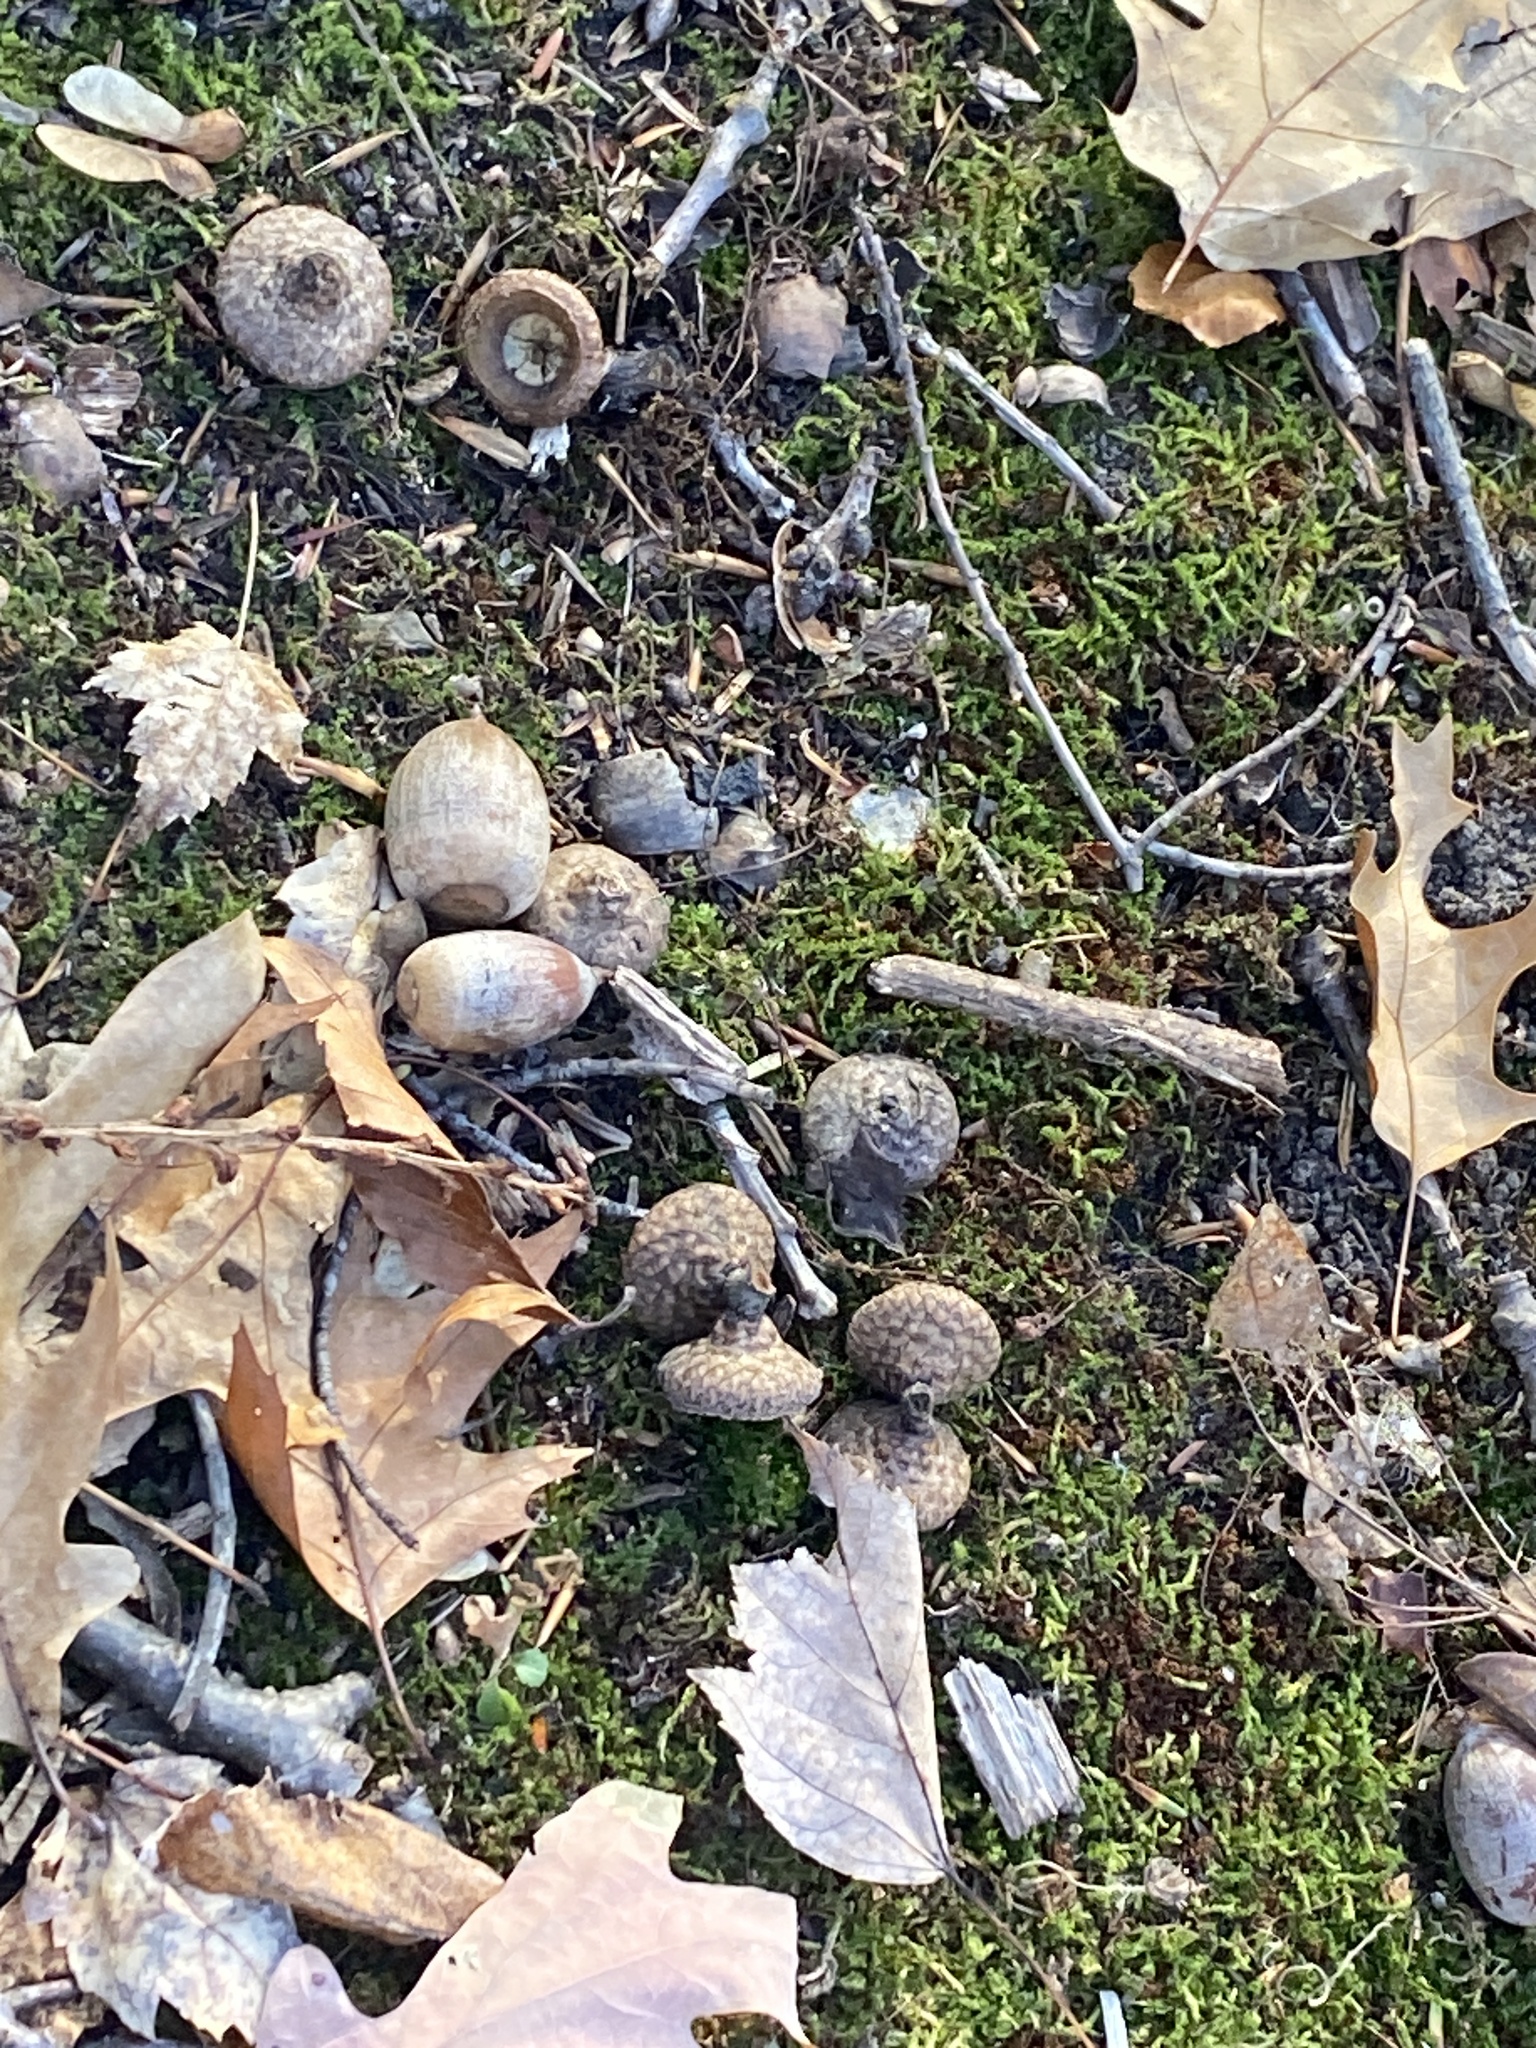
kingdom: Plantae
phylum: Tracheophyta
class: Magnoliopsida
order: Fagales
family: Fagaceae
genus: Quercus
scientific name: Quercus rubra
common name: Red oak
